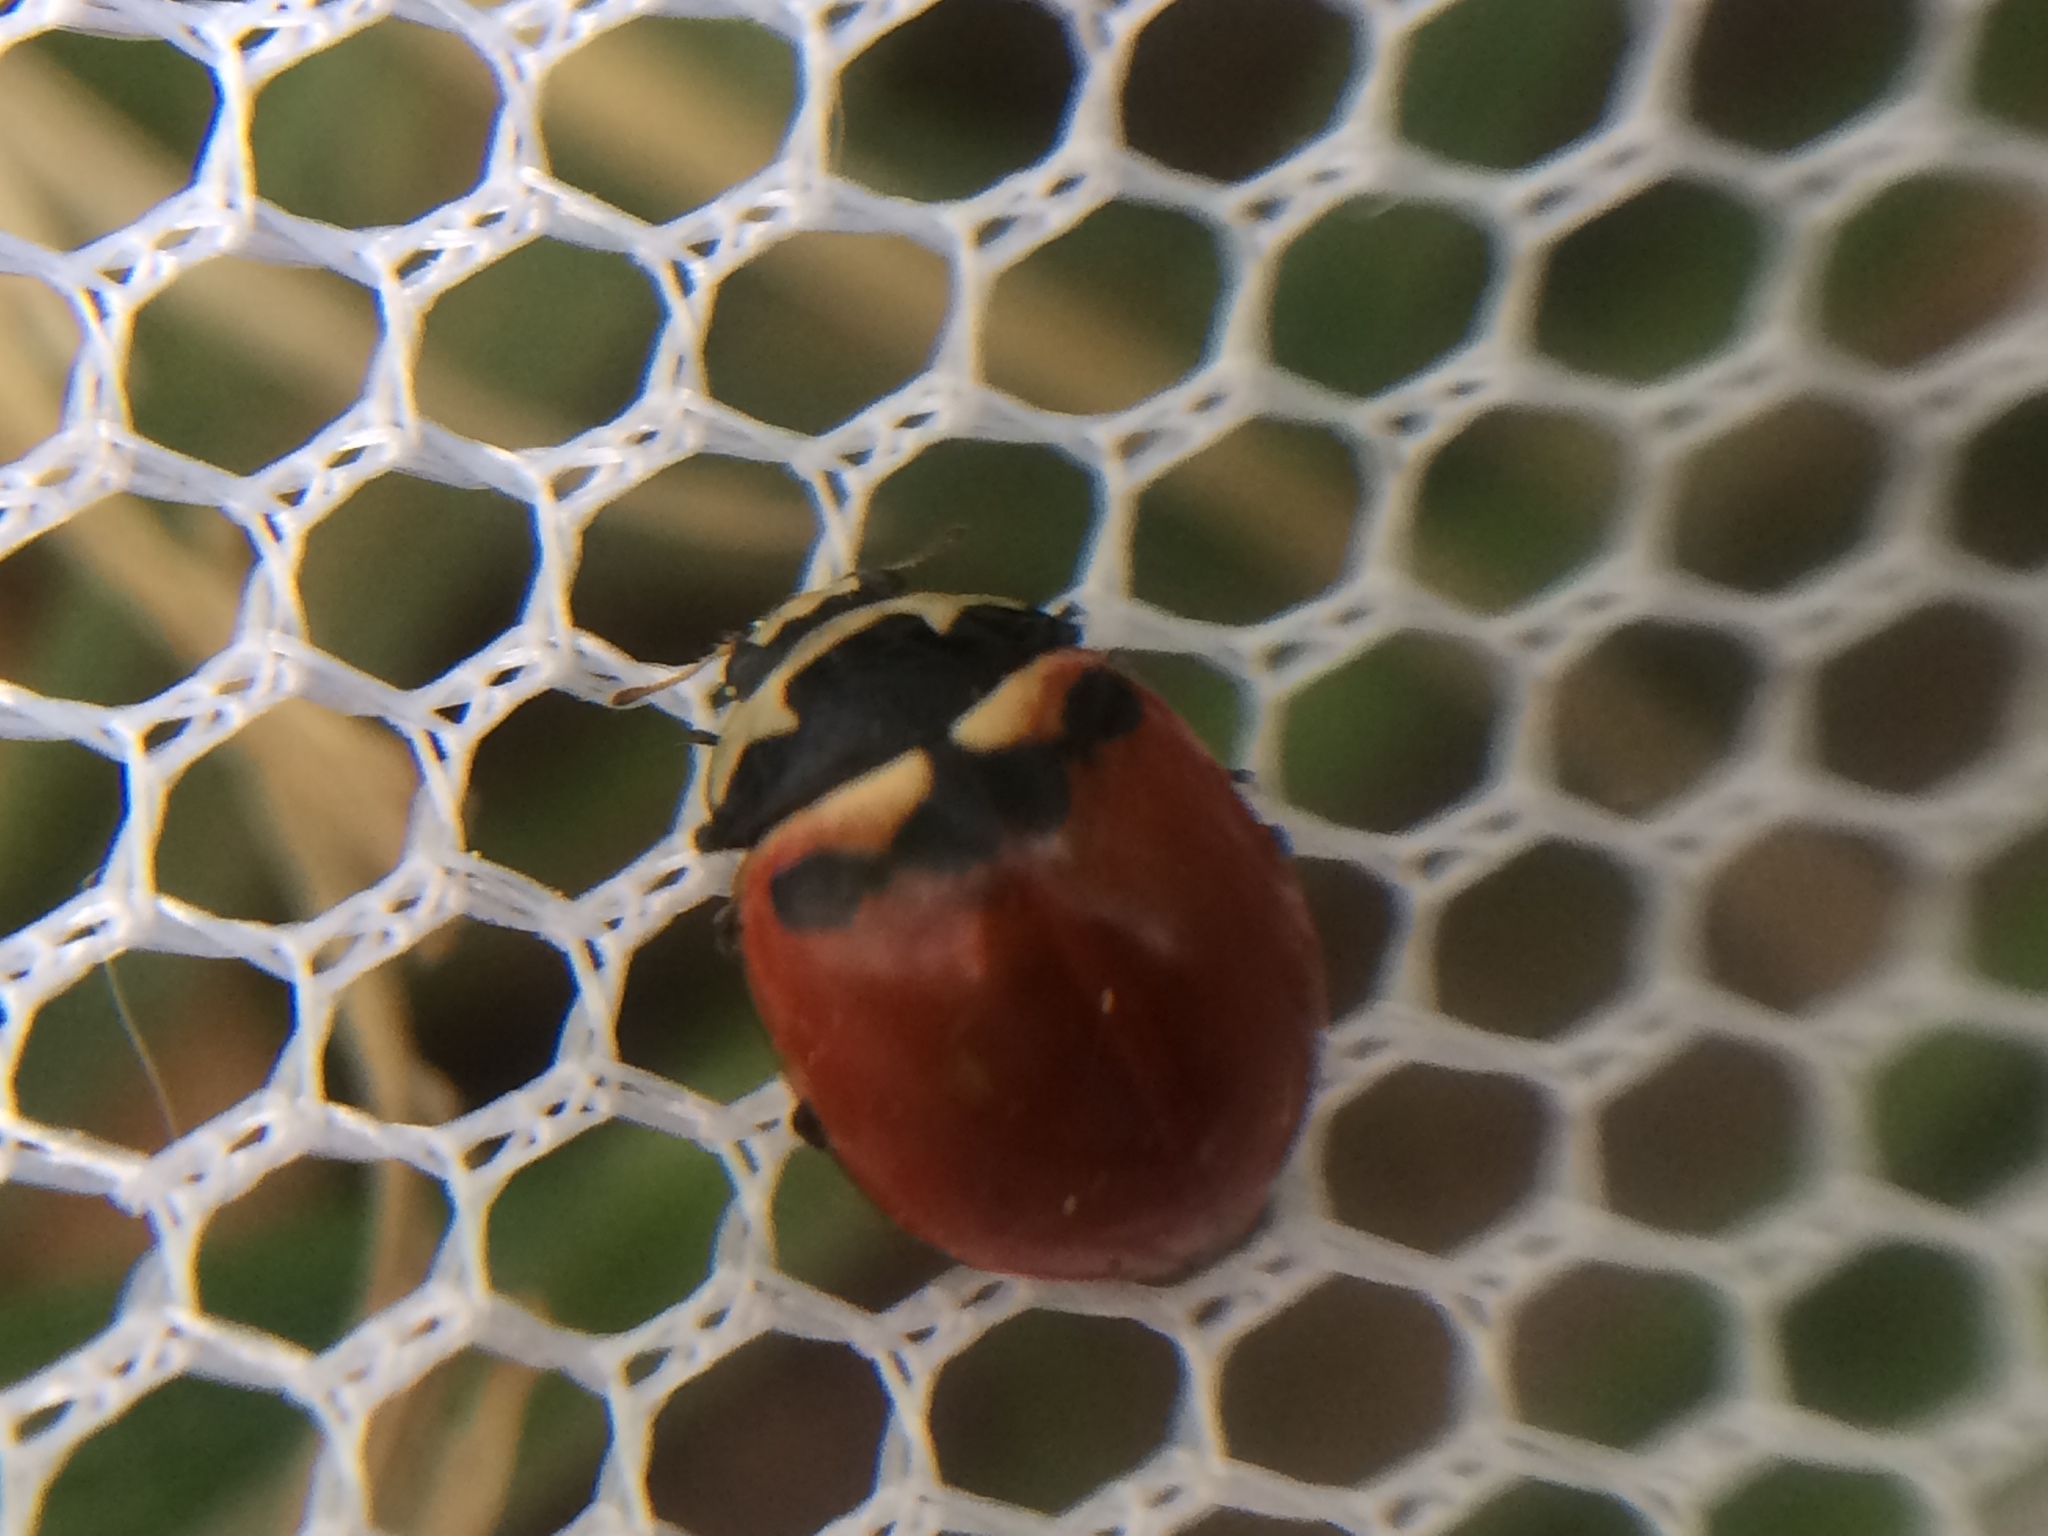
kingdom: Animalia
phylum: Arthropoda
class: Insecta
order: Coleoptera
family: Coccinellidae
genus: Coccinella
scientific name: Coccinella trifasciata
